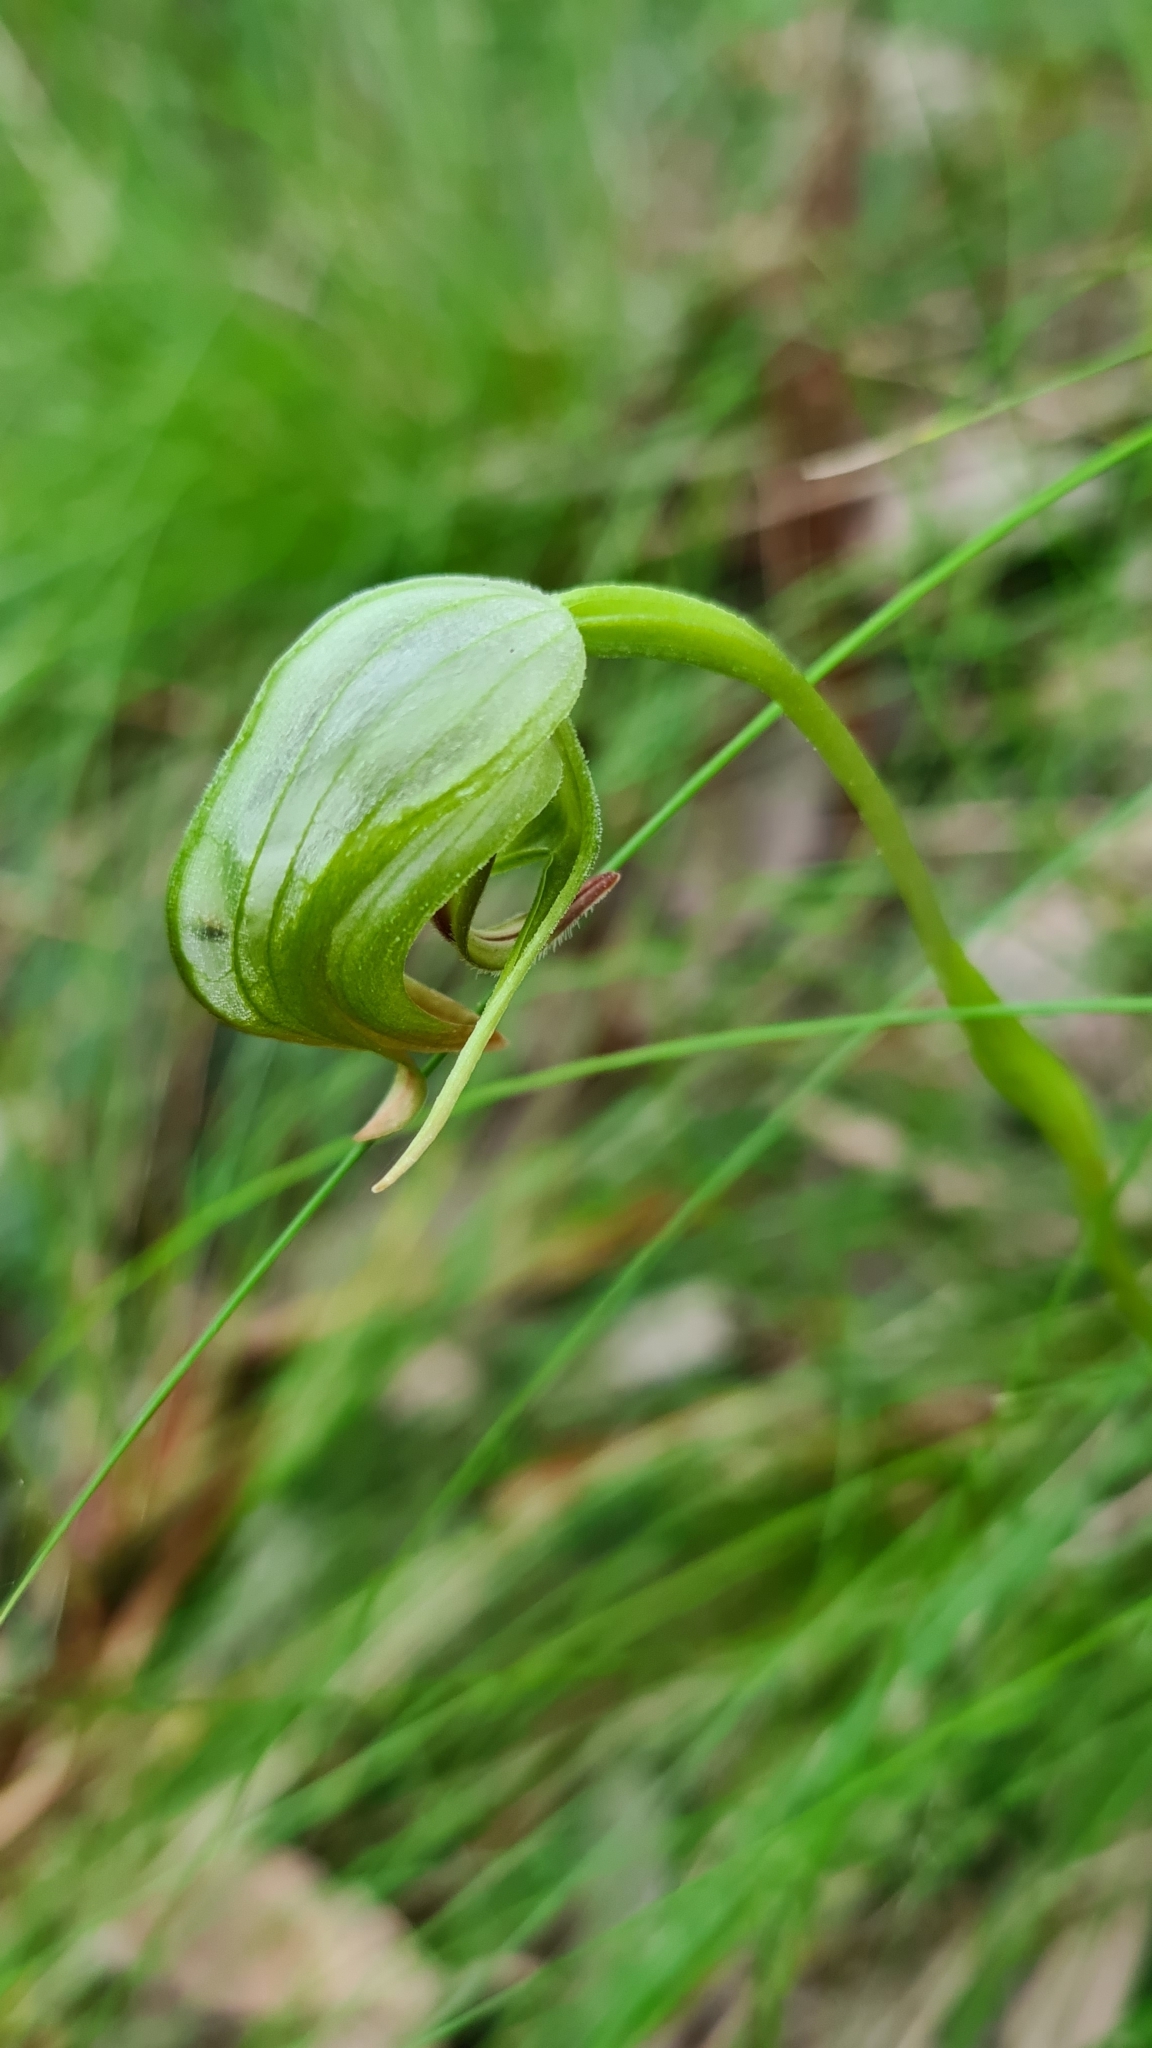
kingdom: Plantae
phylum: Tracheophyta
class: Liliopsida
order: Asparagales
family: Orchidaceae
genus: Pterostylis
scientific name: Pterostylis nutans
